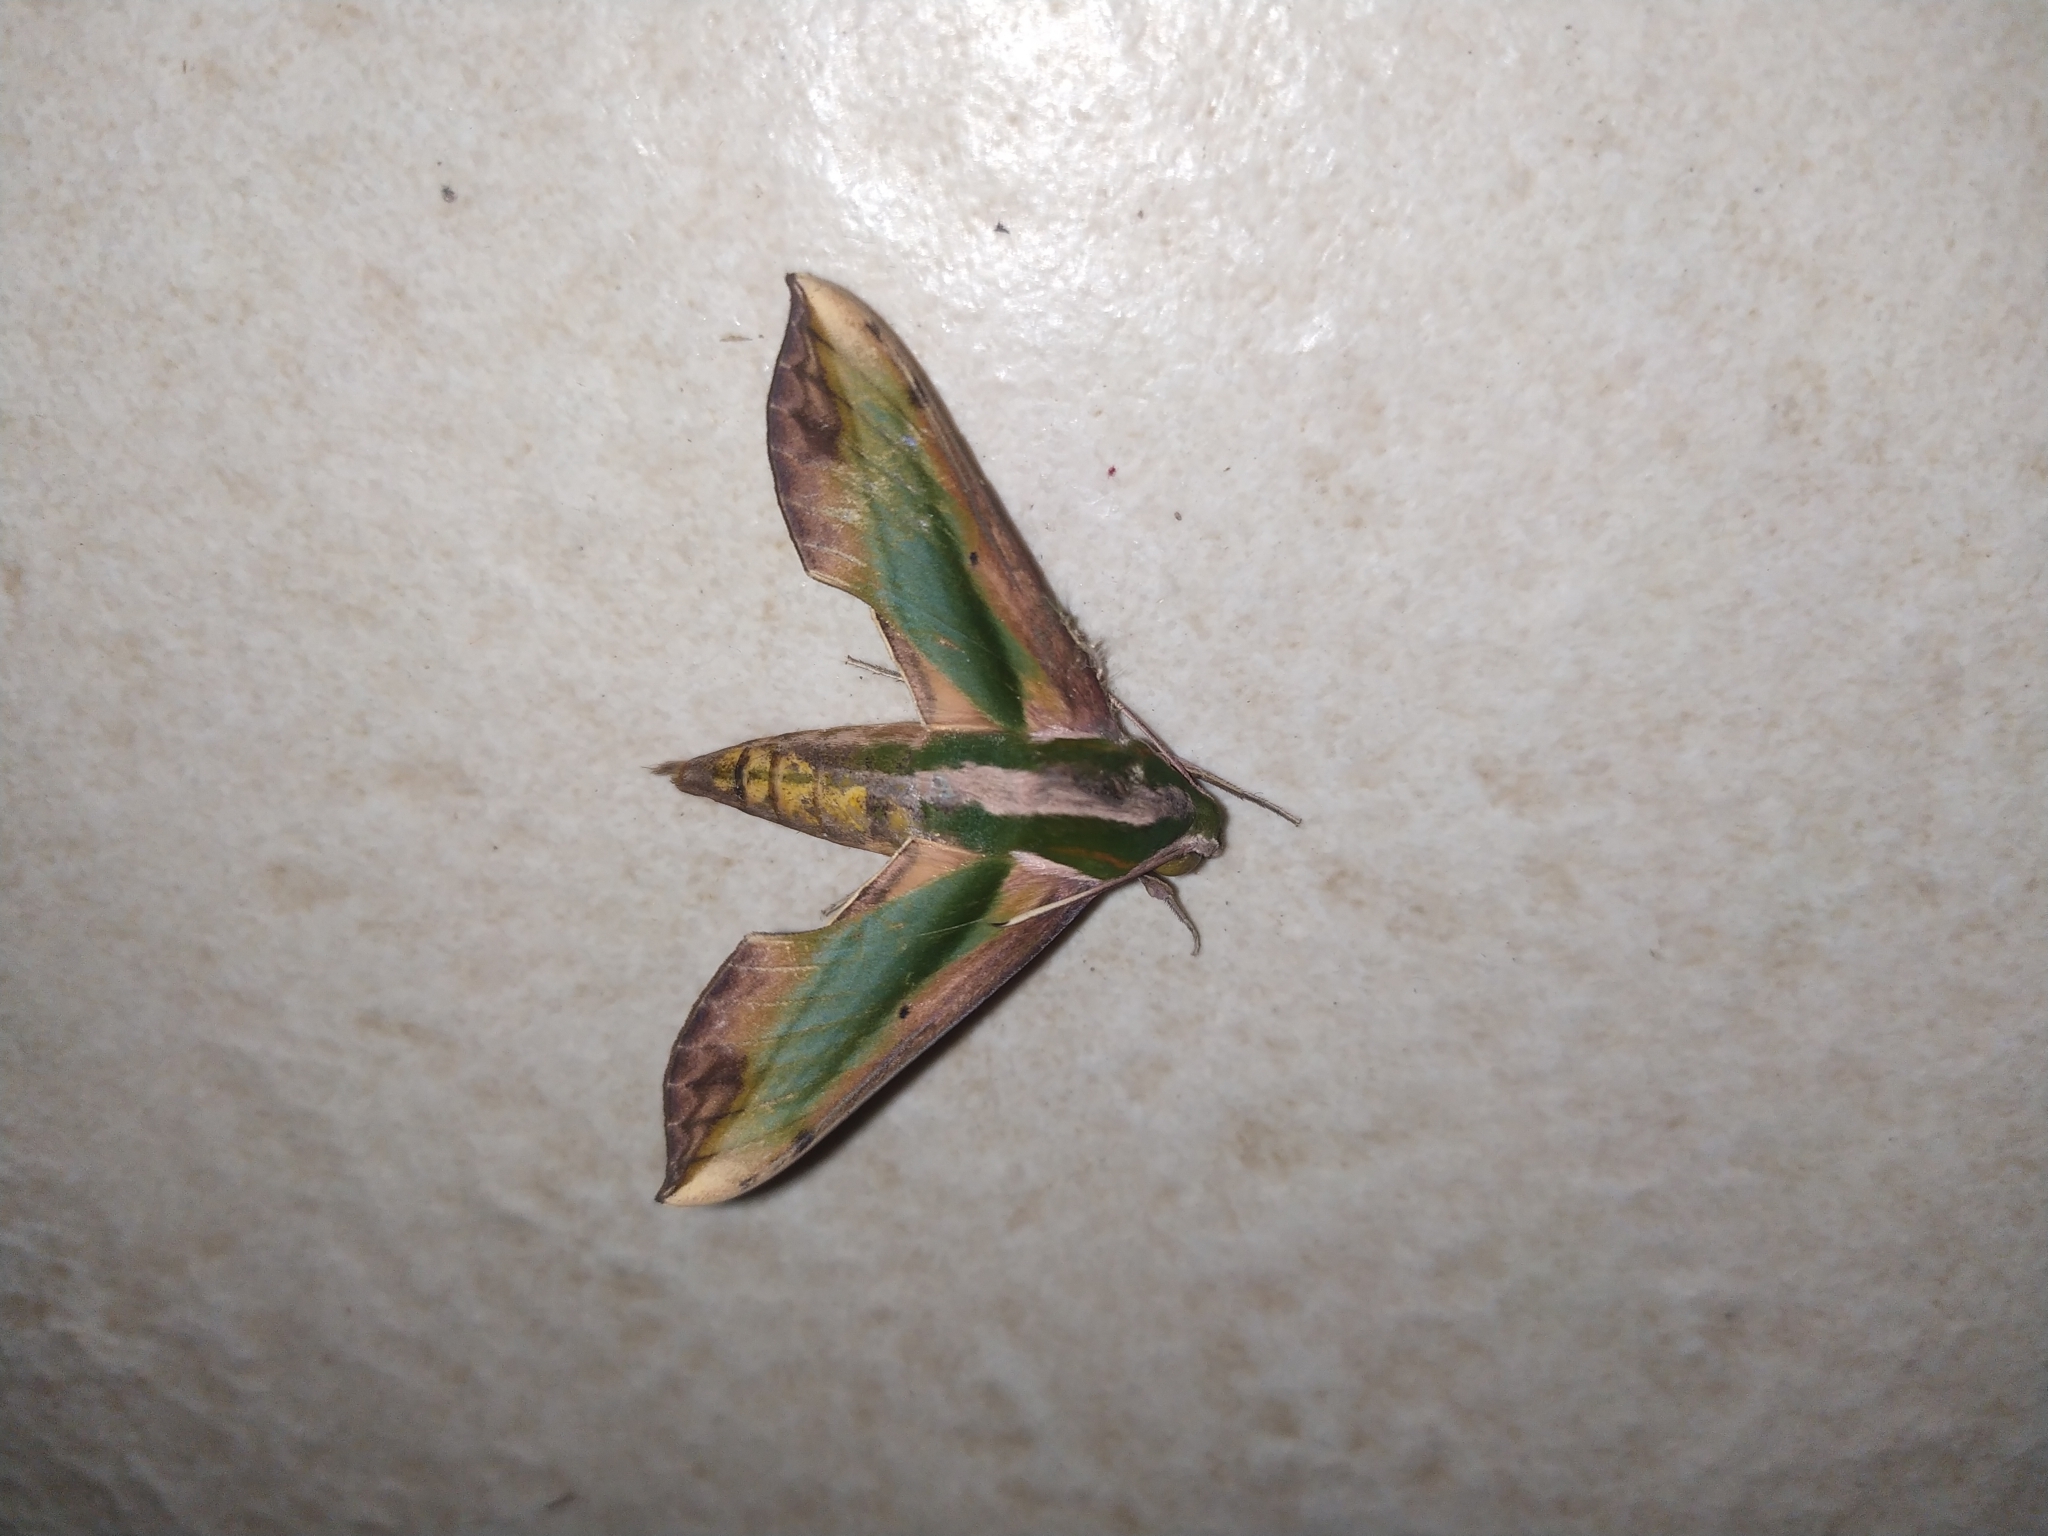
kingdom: Animalia
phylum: Arthropoda
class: Insecta
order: Lepidoptera
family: Sphingidae
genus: Pergesa
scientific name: Pergesa acteus
